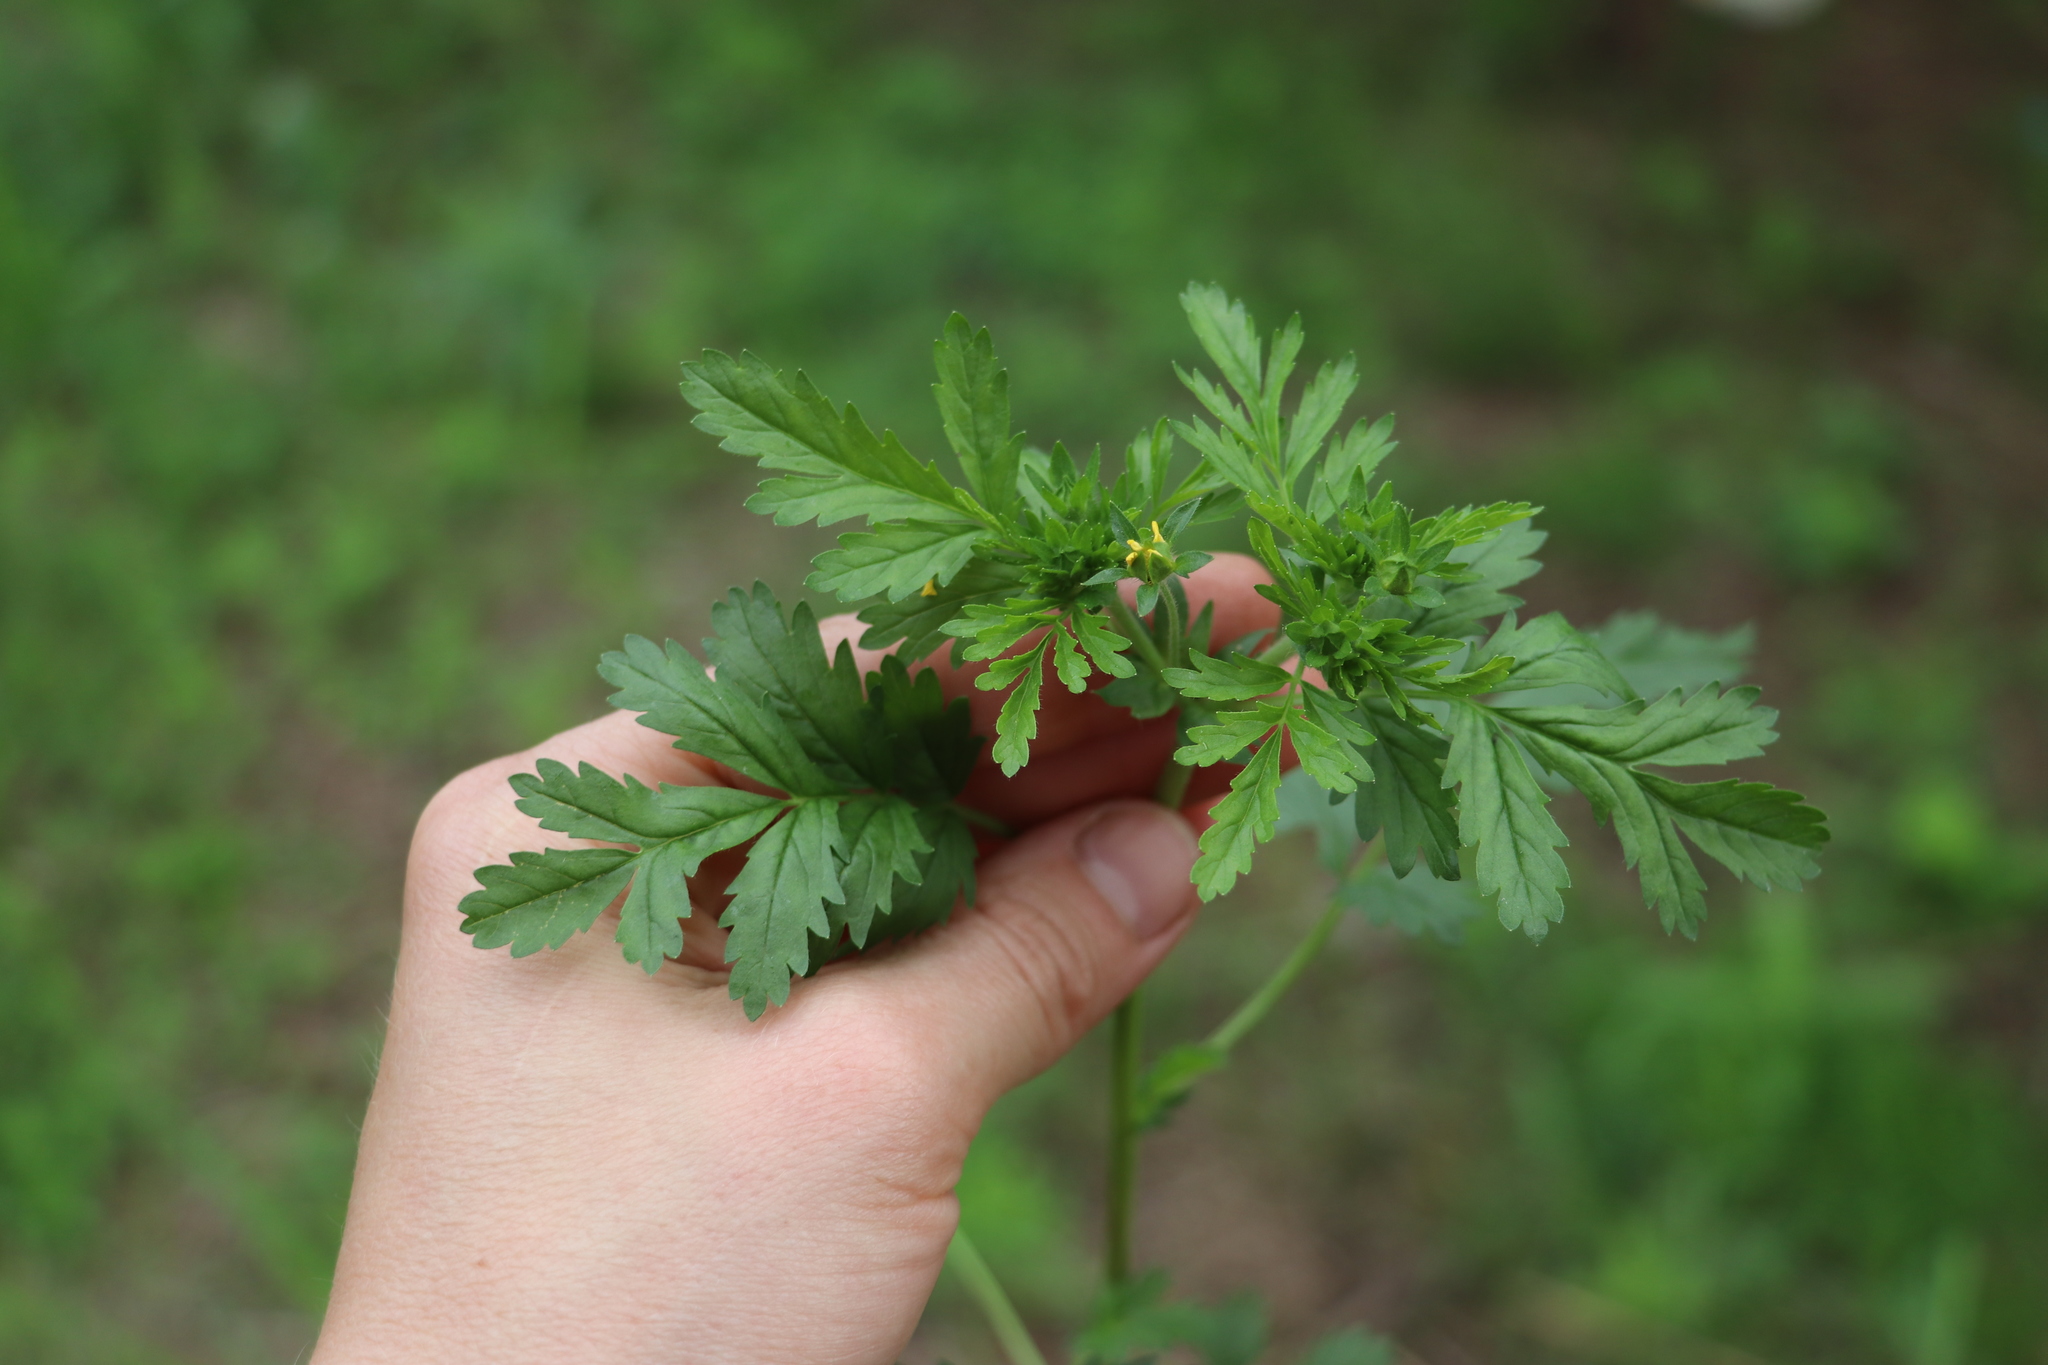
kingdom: Plantae
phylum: Tracheophyta
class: Magnoliopsida
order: Rosales
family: Rosaceae
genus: Potentilla
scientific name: Potentilla supina
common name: Prostrate cinquefoil
